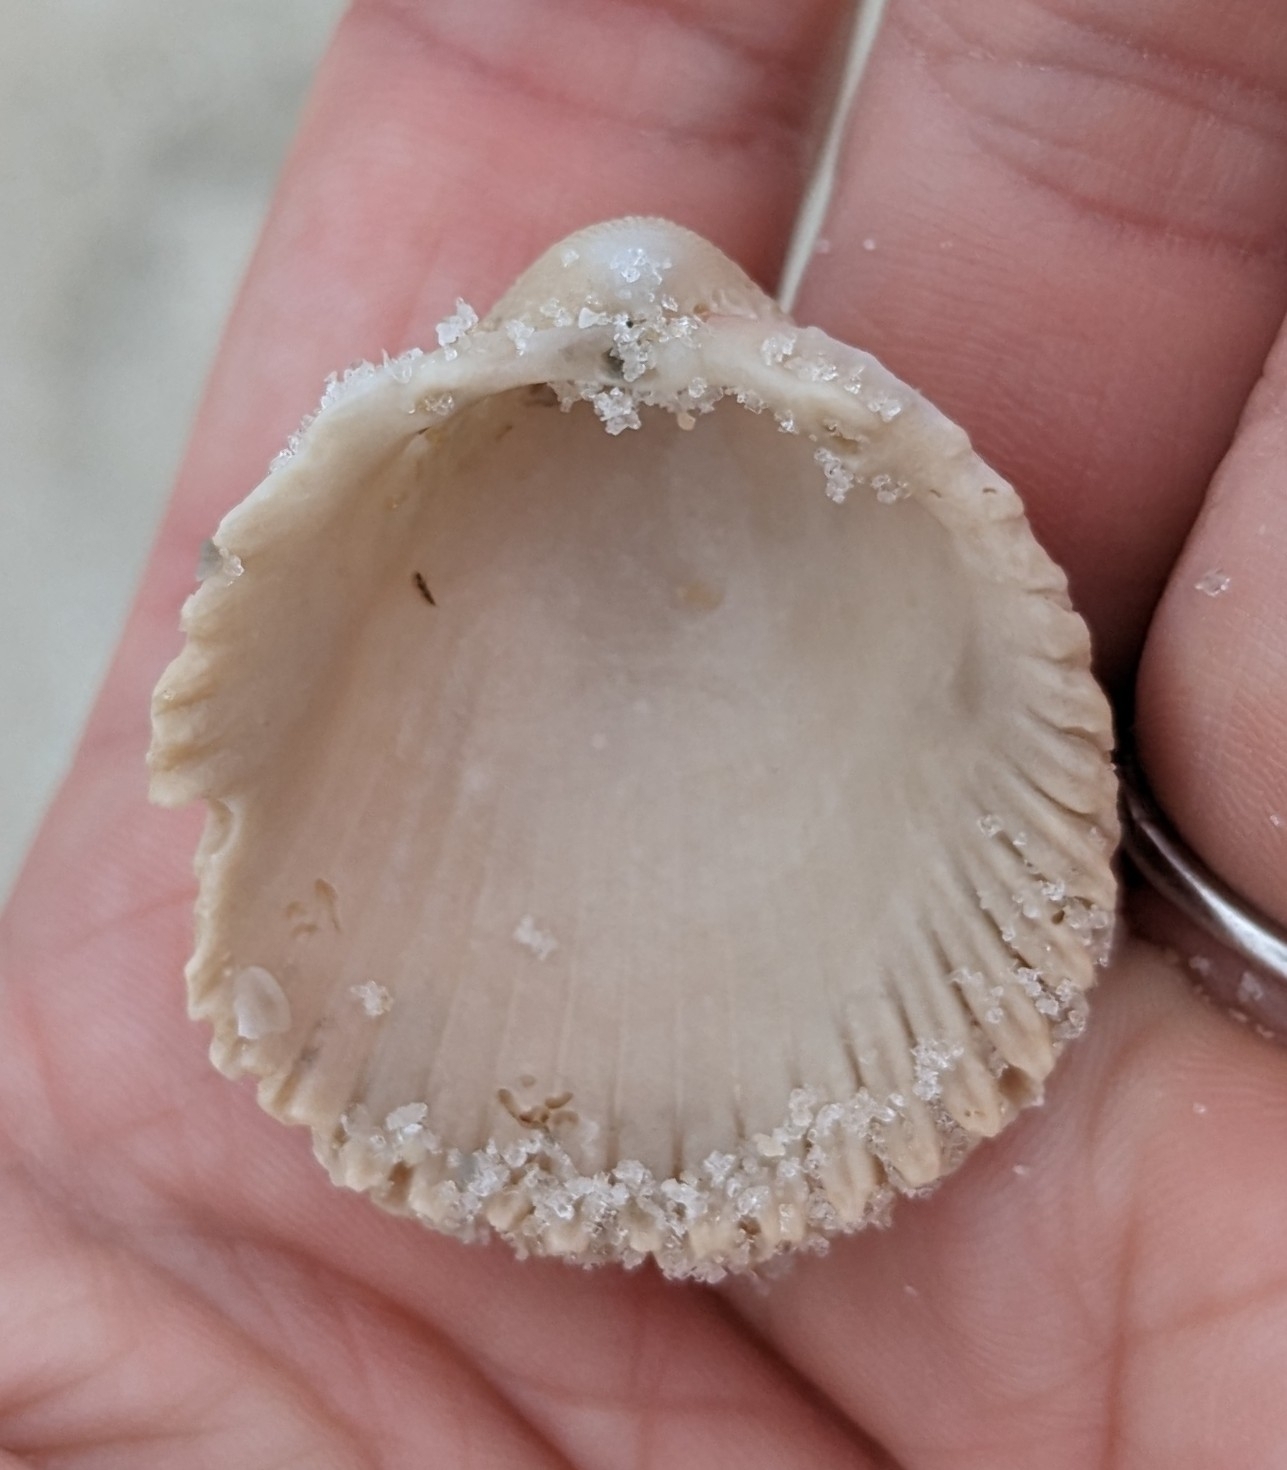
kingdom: Animalia
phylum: Mollusca
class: Bivalvia
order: Cardiida
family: Cardiidae
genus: Trachycardium
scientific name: Trachycardium egmontianum
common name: Florida pricklycockle
